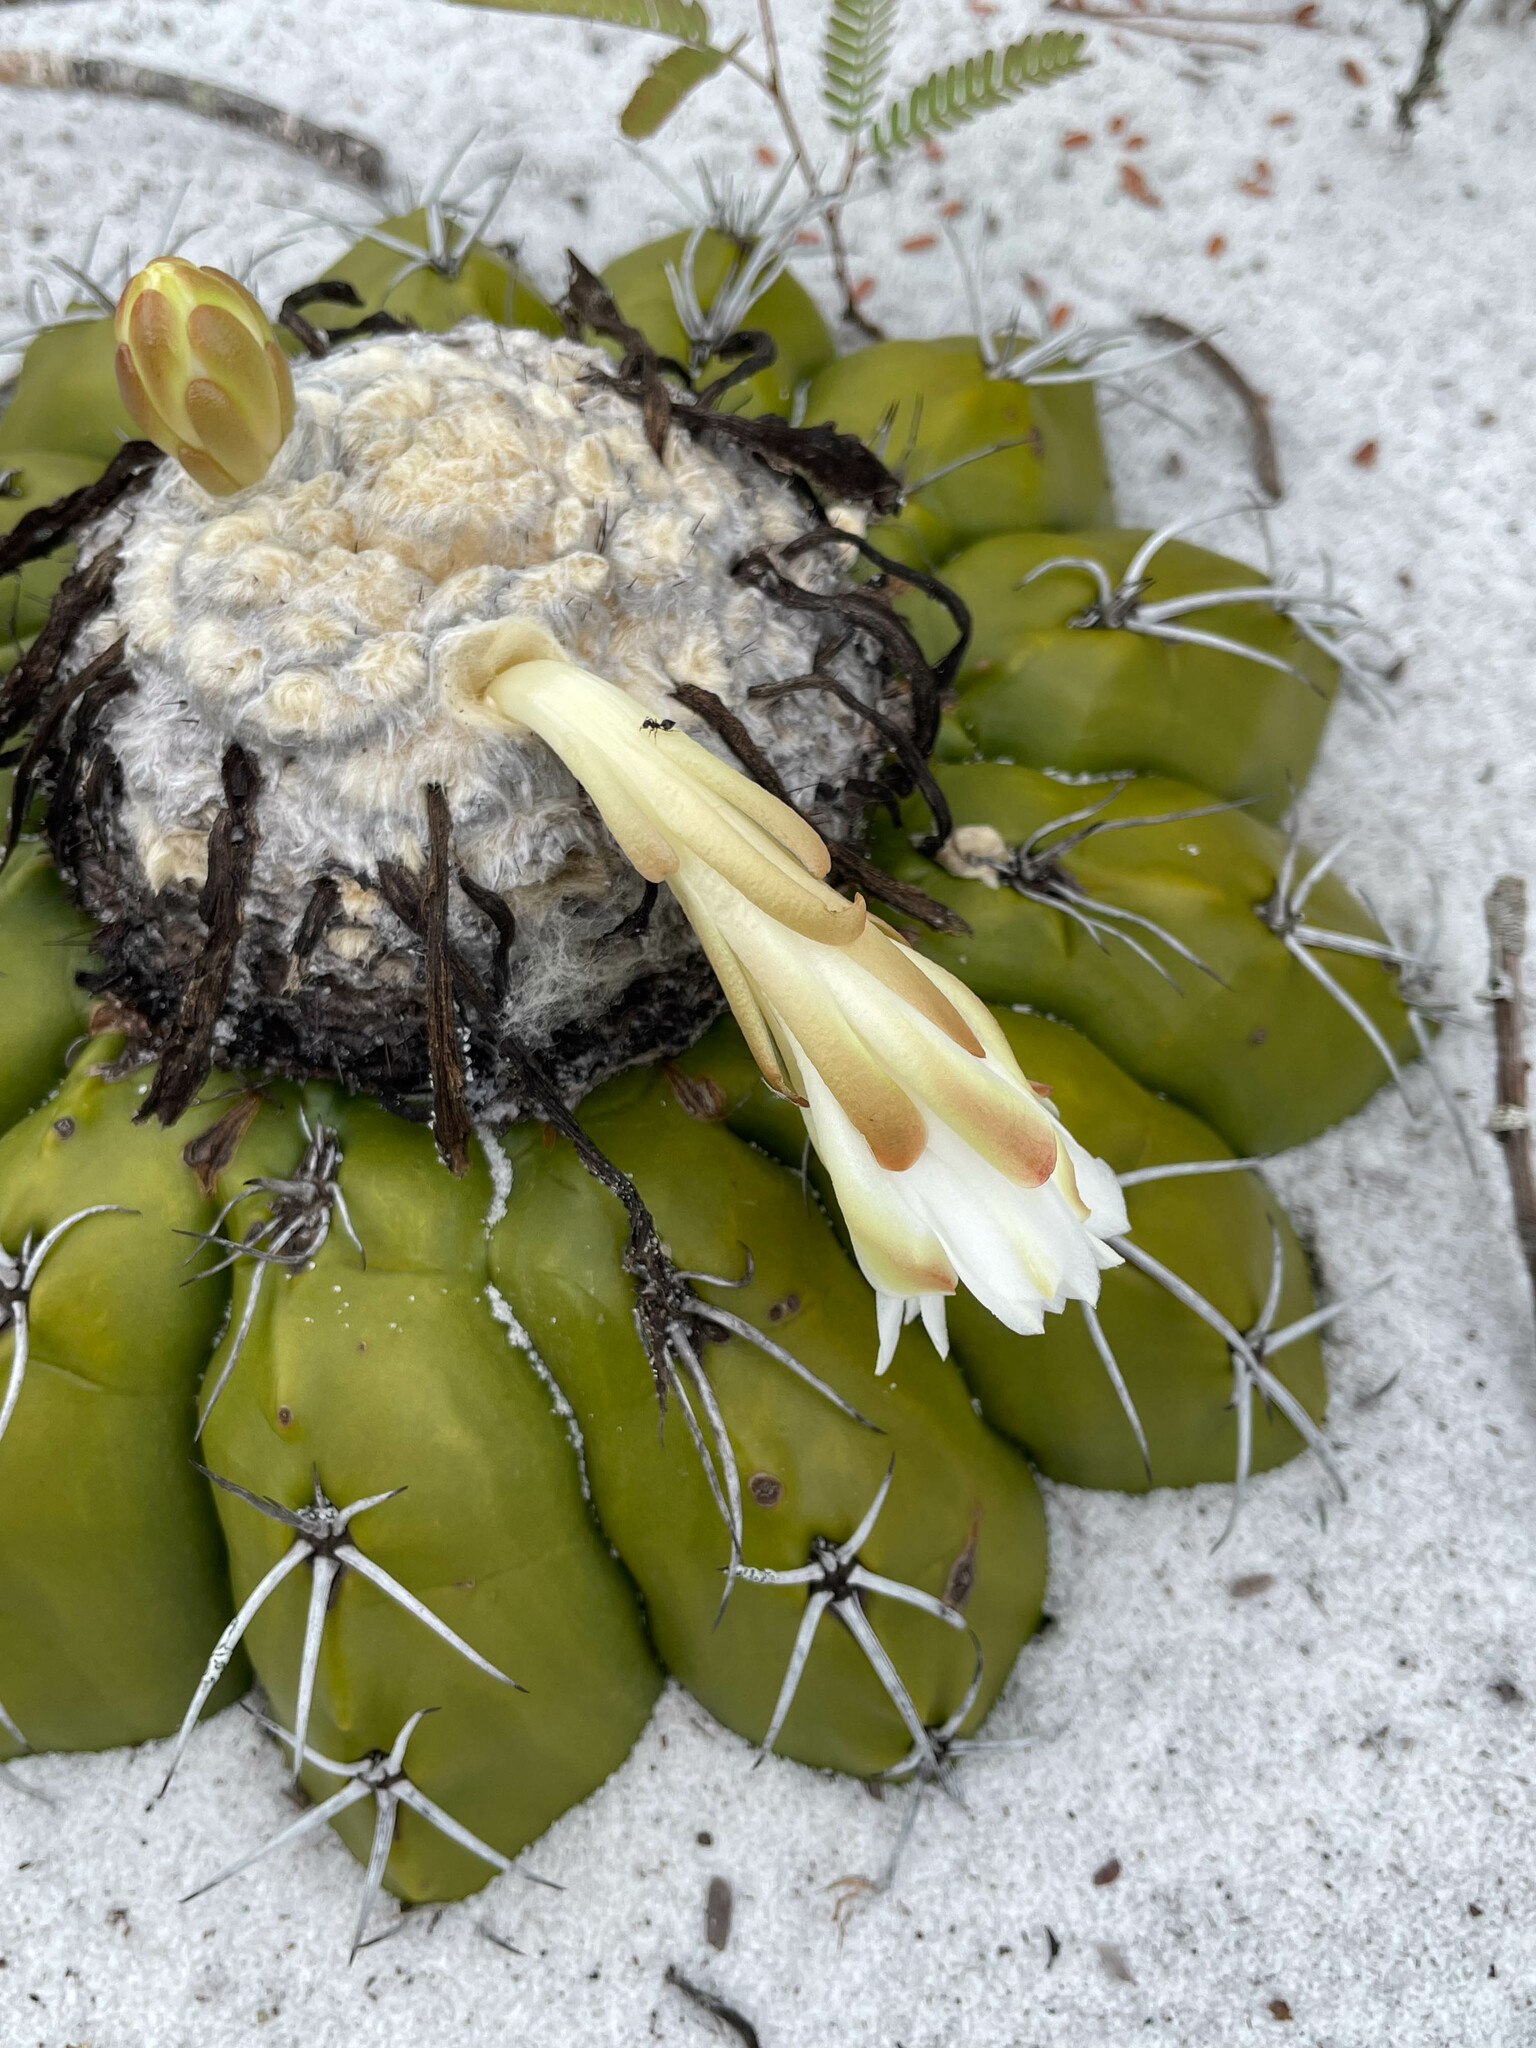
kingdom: Plantae
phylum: Tracheophyta
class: Magnoliopsida
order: Caryophyllales
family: Cactaceae
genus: Discocactus
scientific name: Discocactus pseudoinsignis
